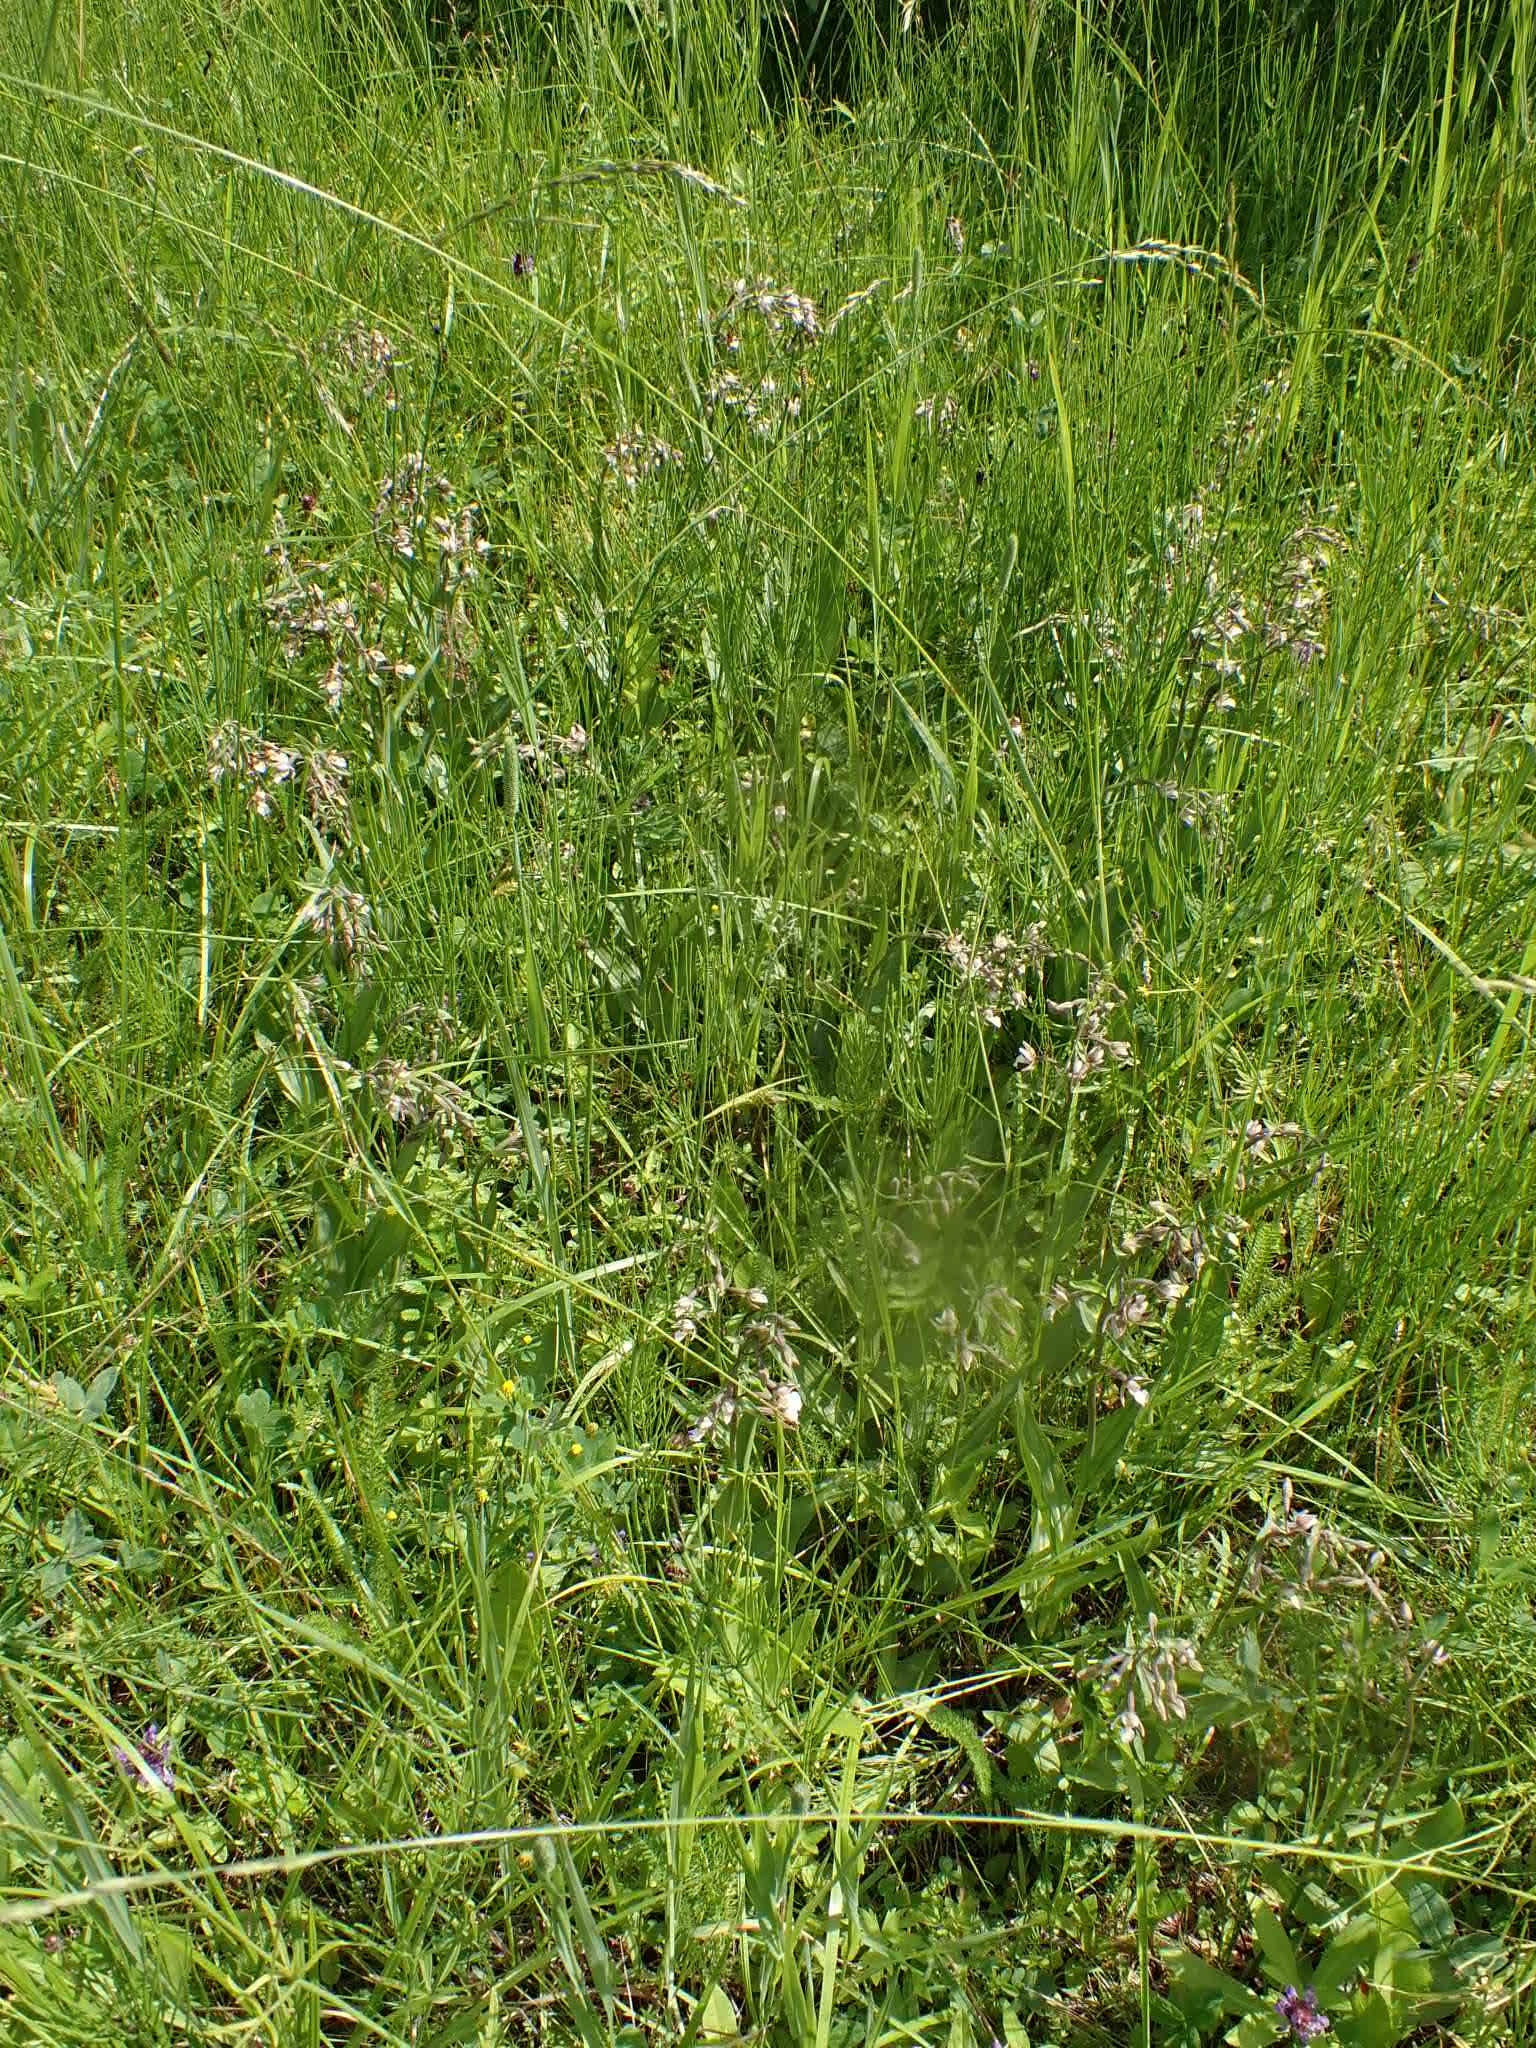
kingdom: Plantae
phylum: Tracheophyta
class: Liliopsida
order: Asparagales
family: Orchidaceae
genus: Epipactis
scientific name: Epipactis palustris
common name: Marsh helleborine
